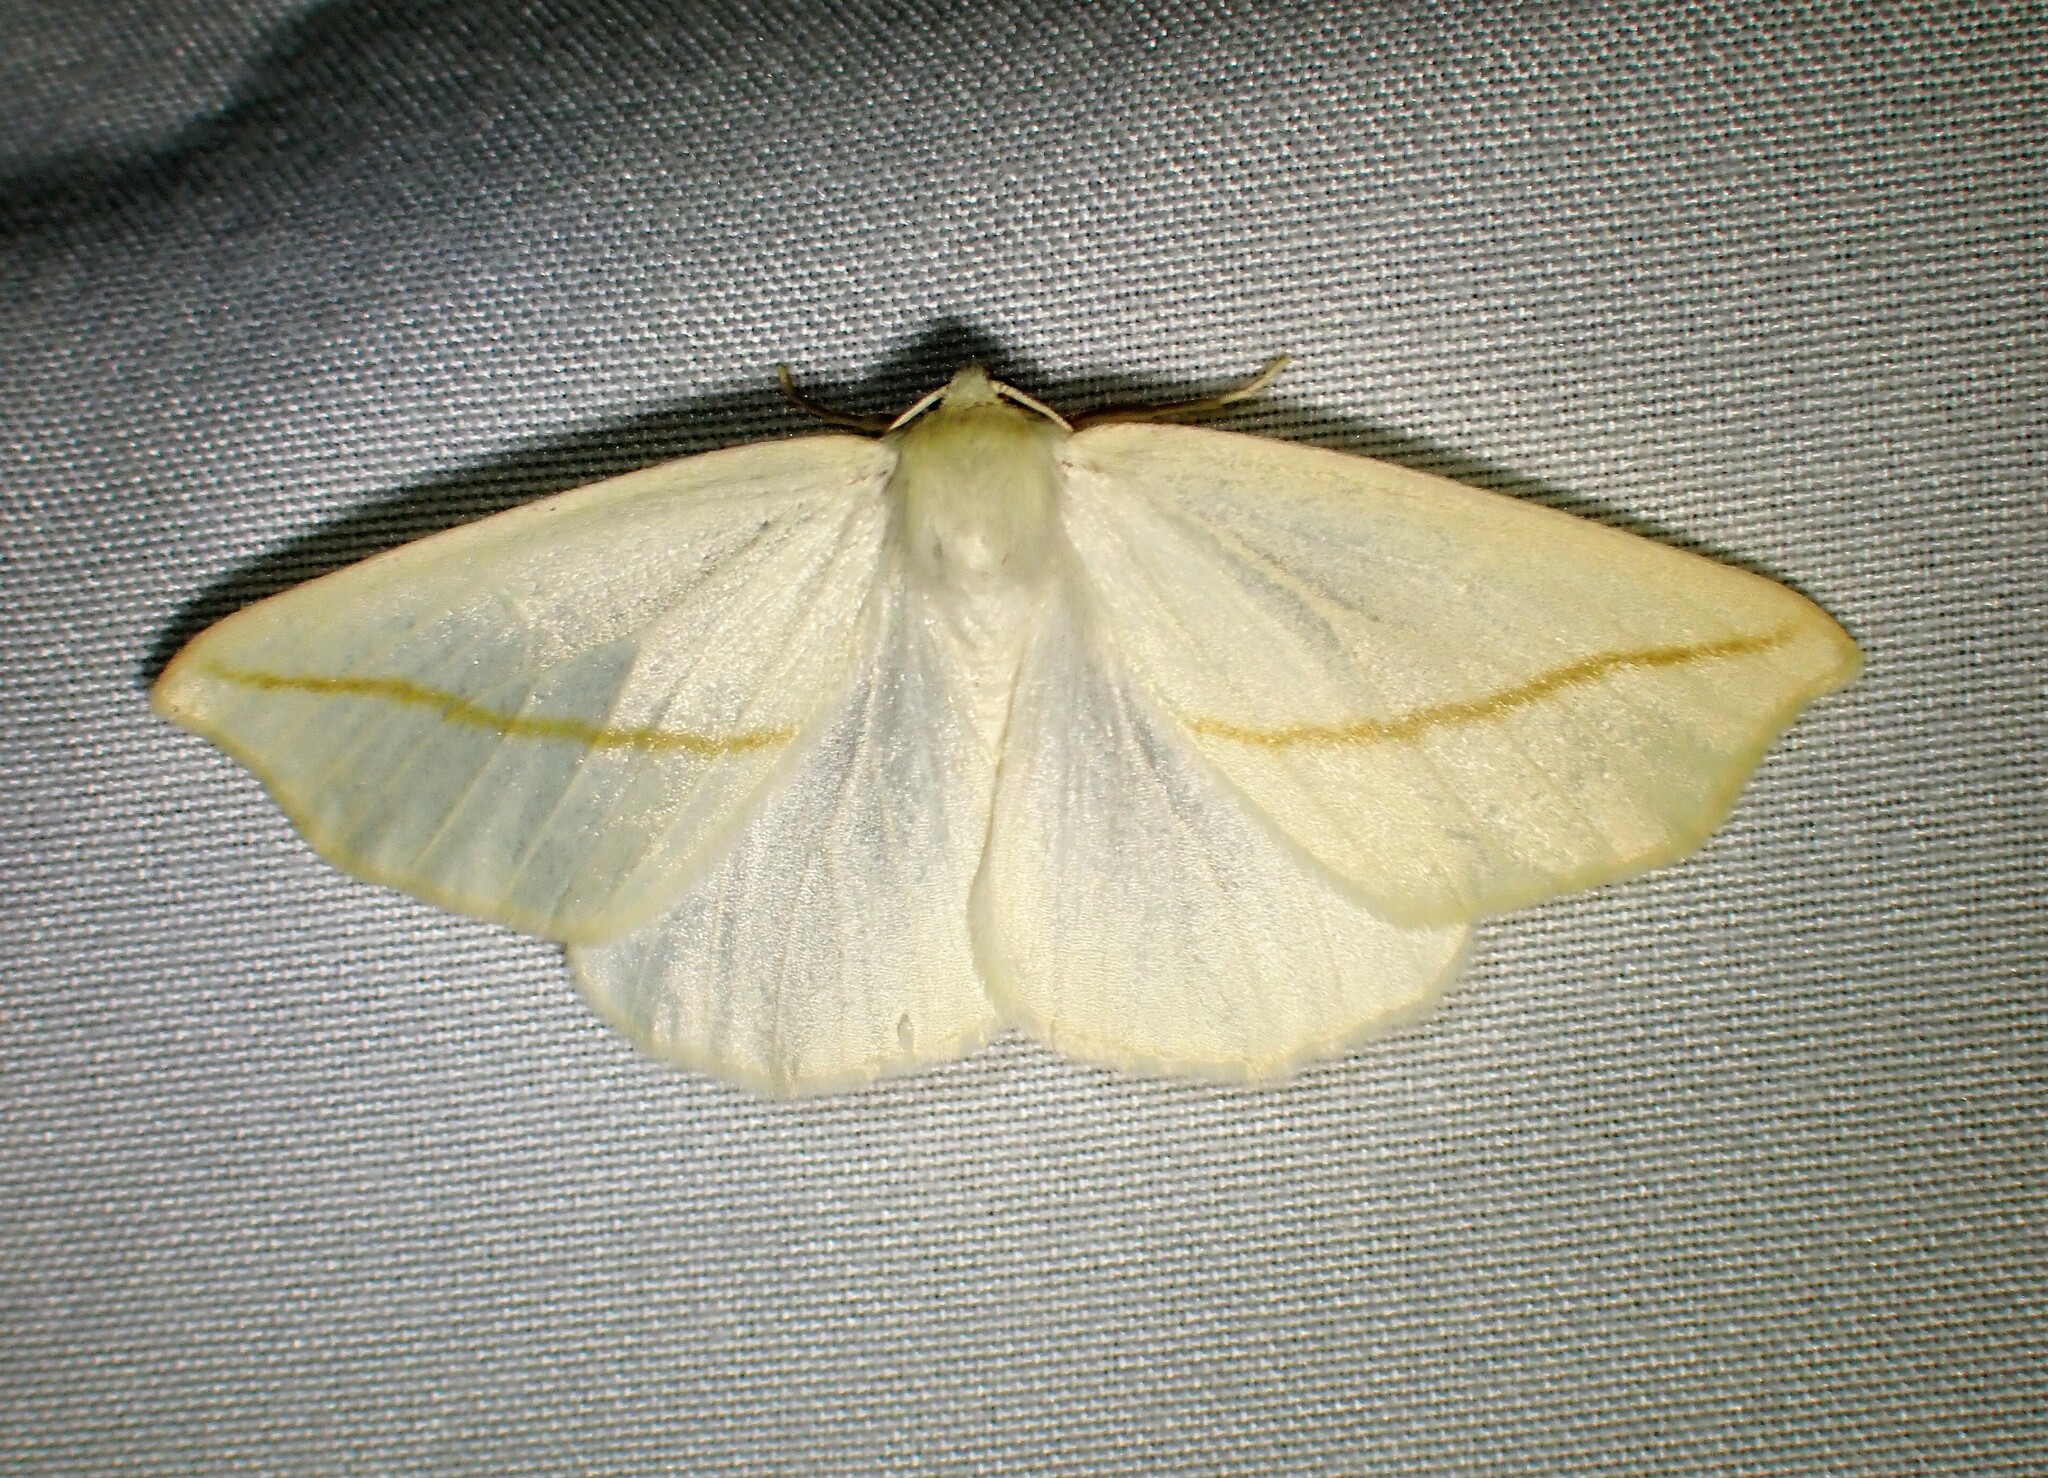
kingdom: Animalia
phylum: Arthropoda
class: Insecta
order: Lepidoptera
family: Geometridae
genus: Tetracis
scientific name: Tetracis cachexiata
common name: White slant-line
